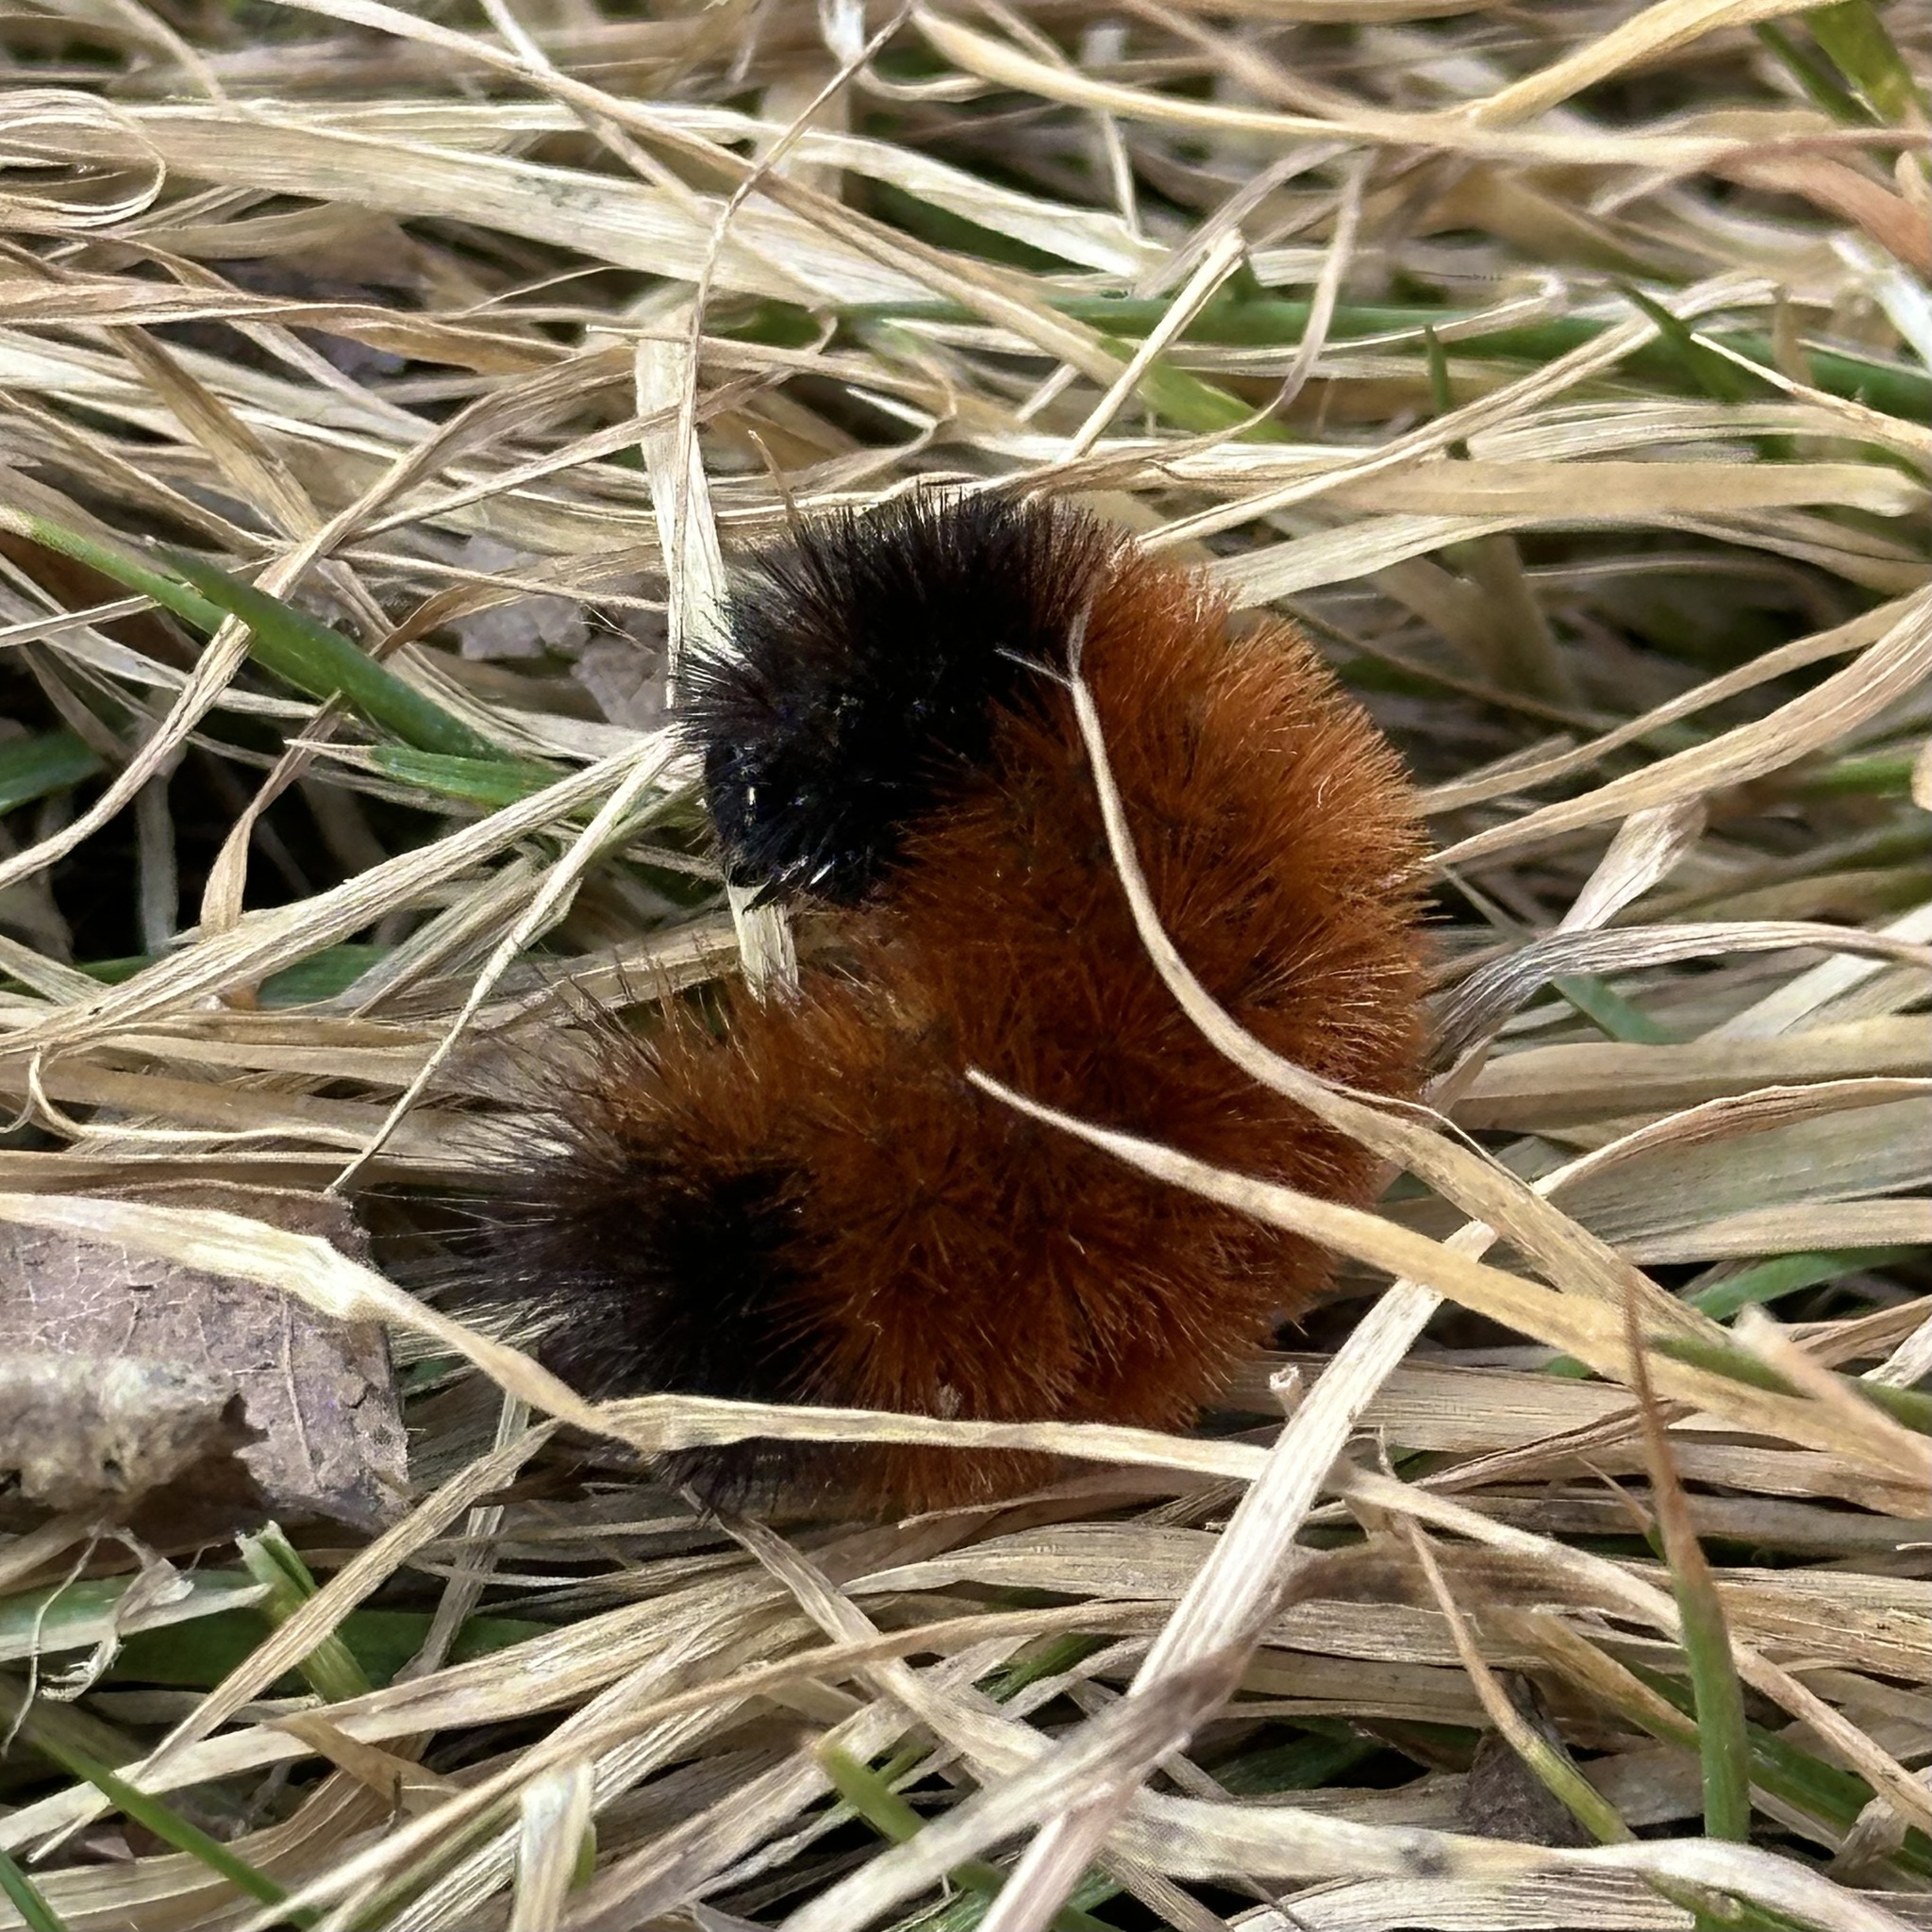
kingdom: Animalia
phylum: Arthropoda
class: Insecta
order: Lepidoptera
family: Erebidae
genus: Pyrrharctia
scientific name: Pyrrharctia isabella
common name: Isabella tiger moth
